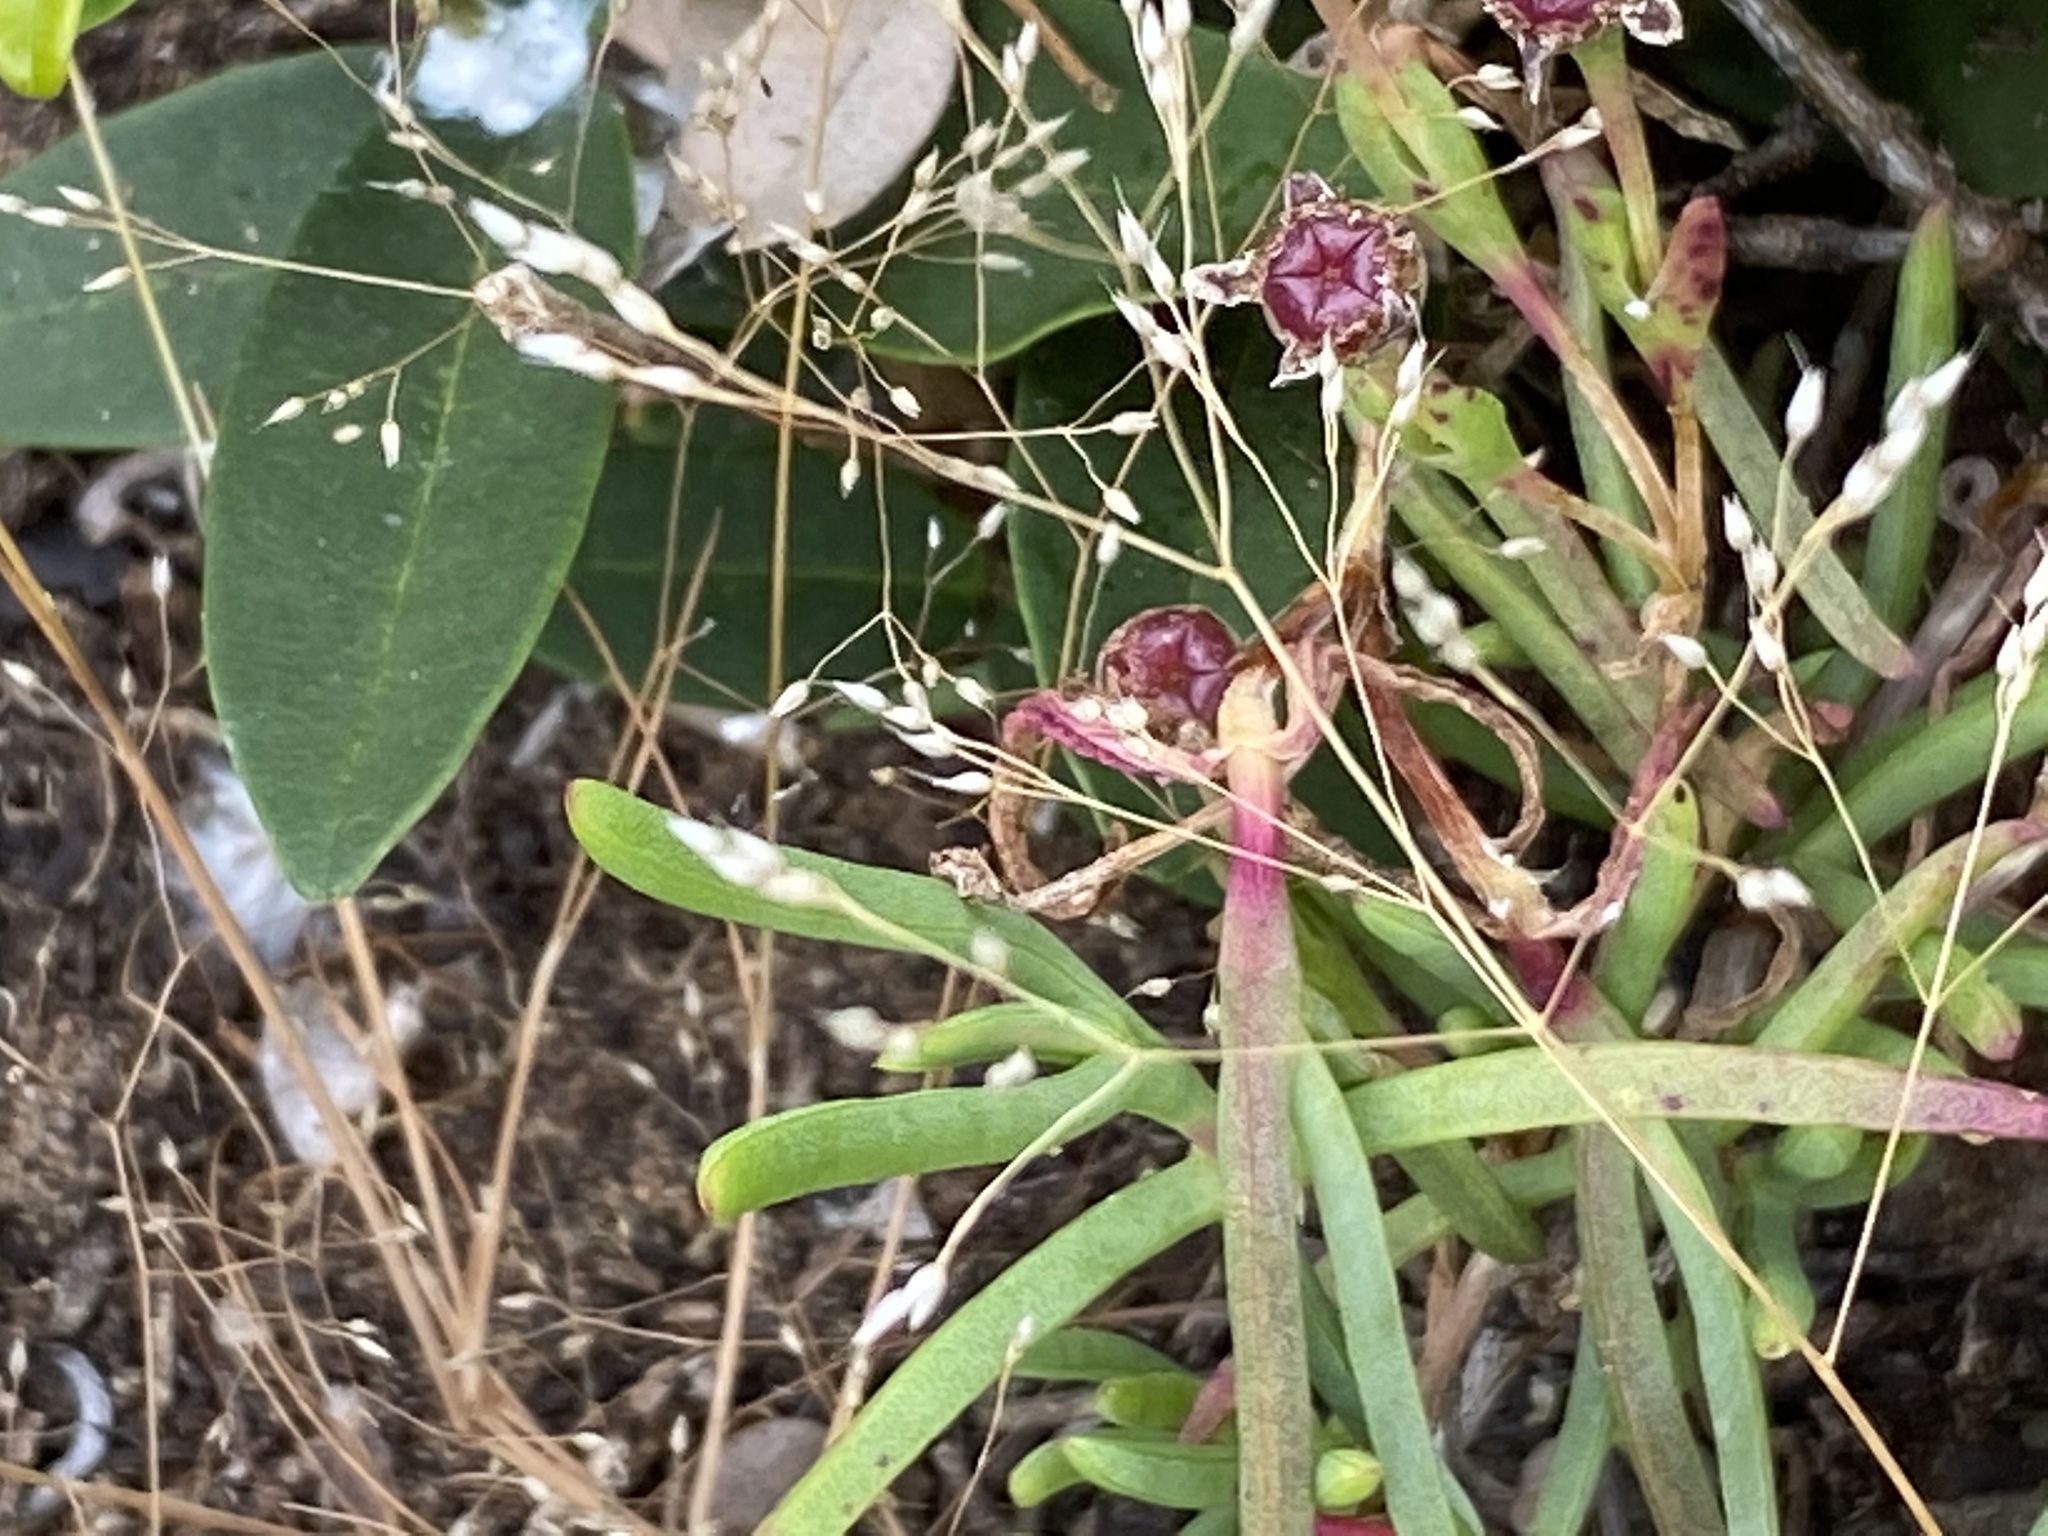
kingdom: Plantae
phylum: Tracheophyta
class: Liliopsida
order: Poales
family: Poaceae
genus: Aira
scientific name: Aira caryophyllea
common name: Silver hairgrass
